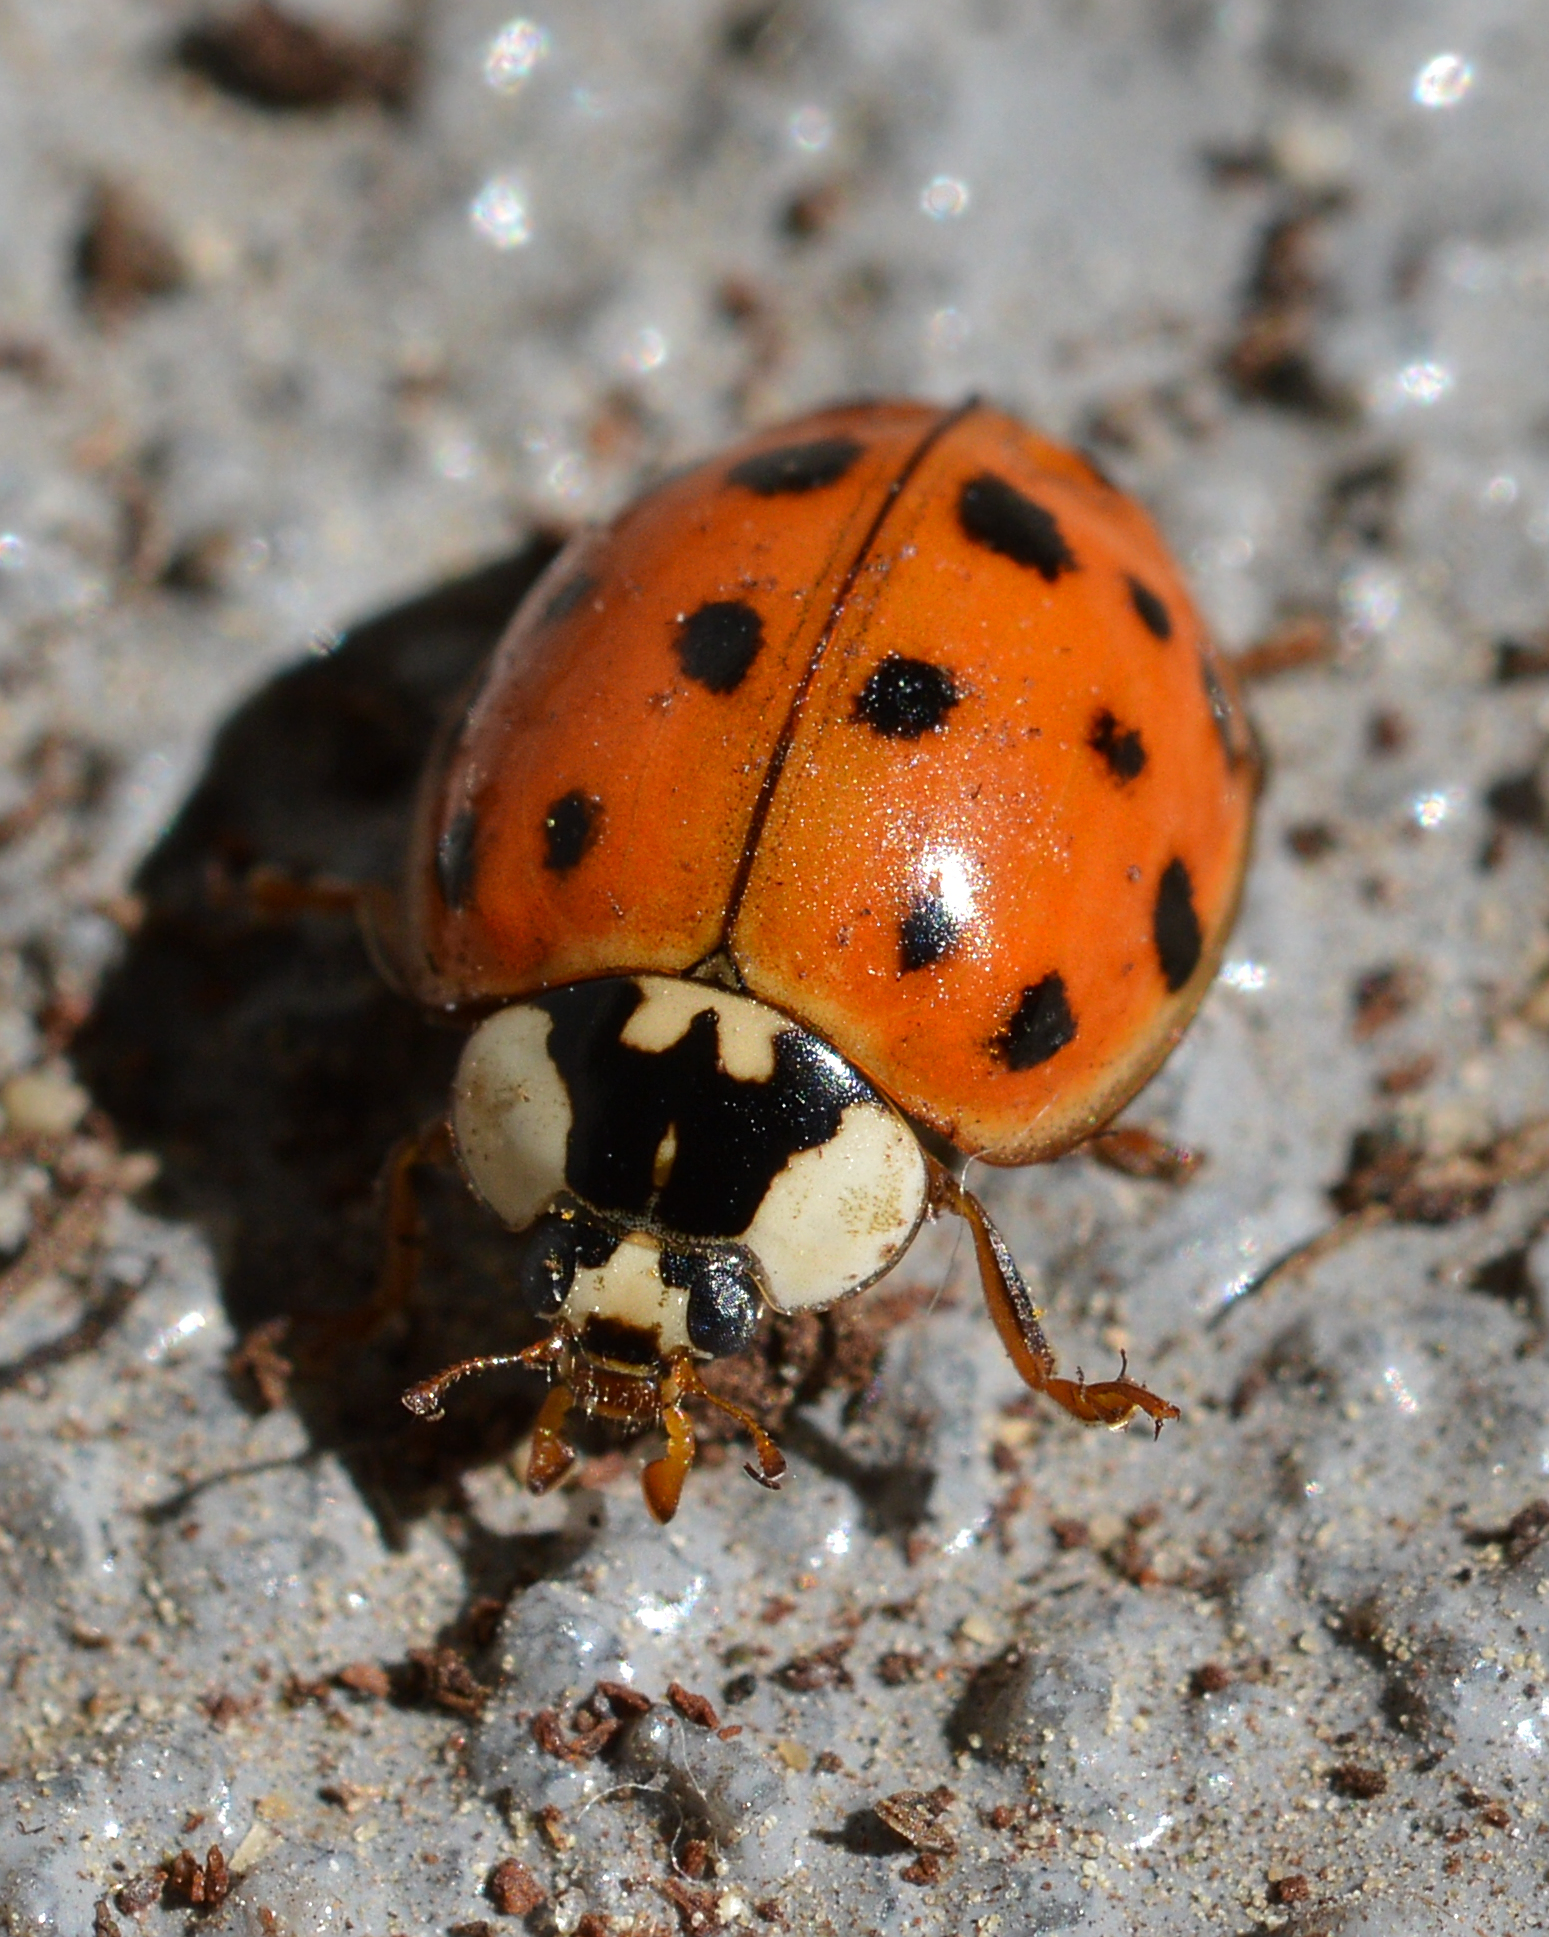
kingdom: Animalia
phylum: Arthropoda
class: Insecta
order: Coleoptera
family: Coccinellidae
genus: Harmonia
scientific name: Harmonia axyridis
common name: Harlequin ladybird
